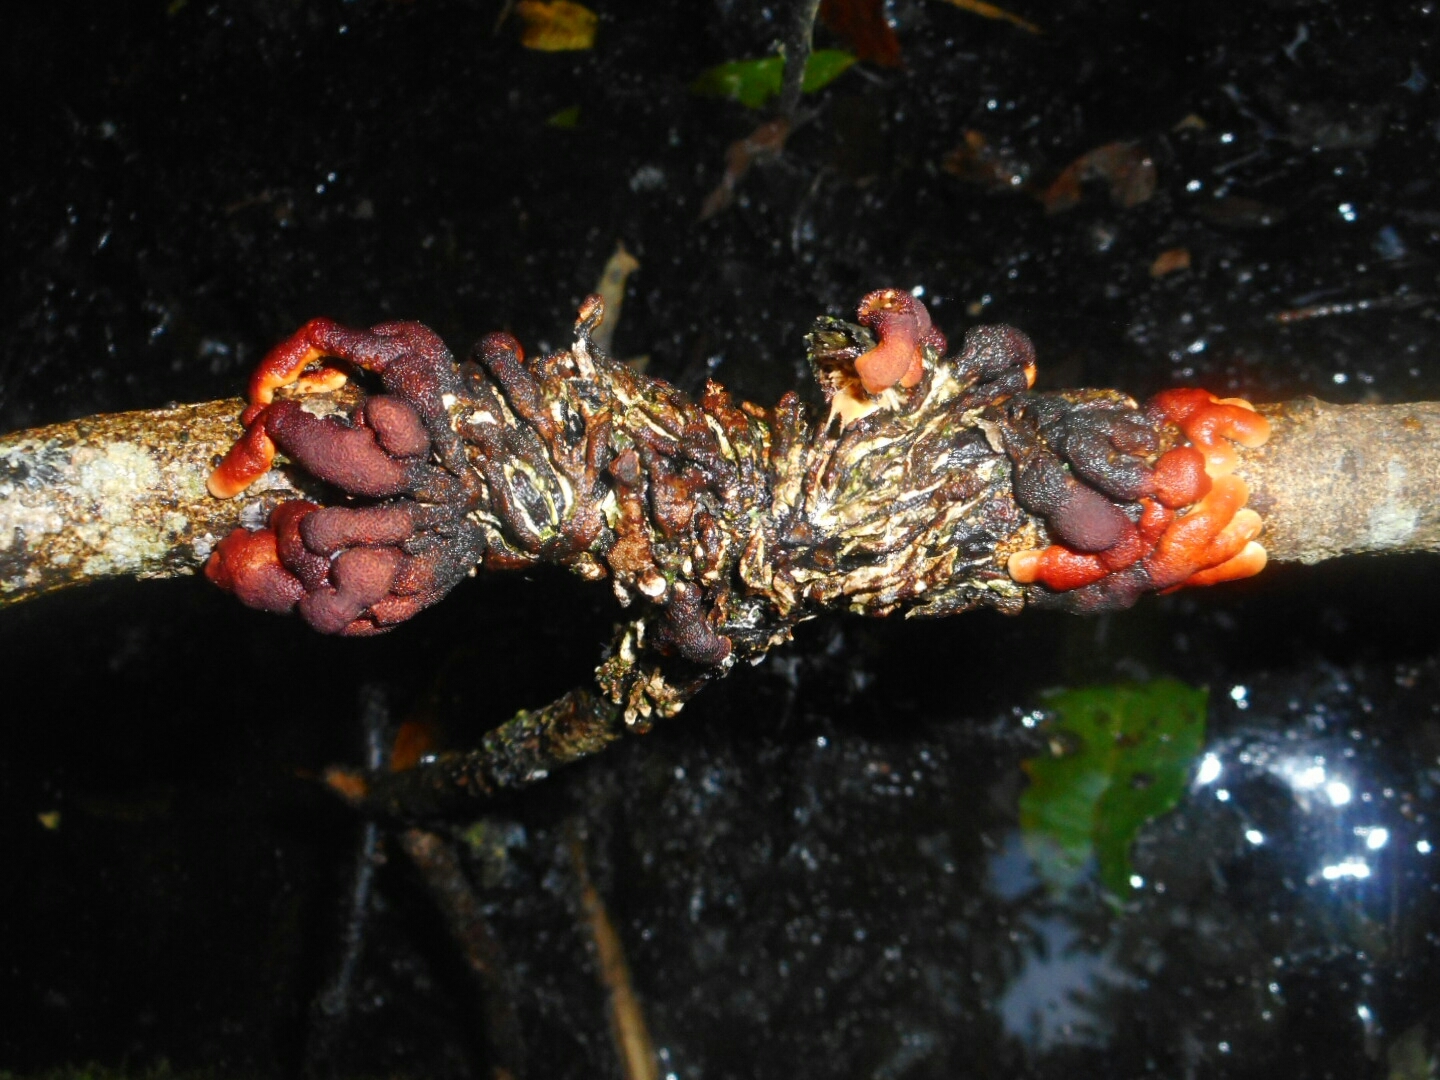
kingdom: Fungi
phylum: Ascomycota
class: Sordariomycetes
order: Hypocreales
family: Hypocreaceae
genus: Hypocreopsis
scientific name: Hypocreopsis lichenoides
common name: Willow gloves
